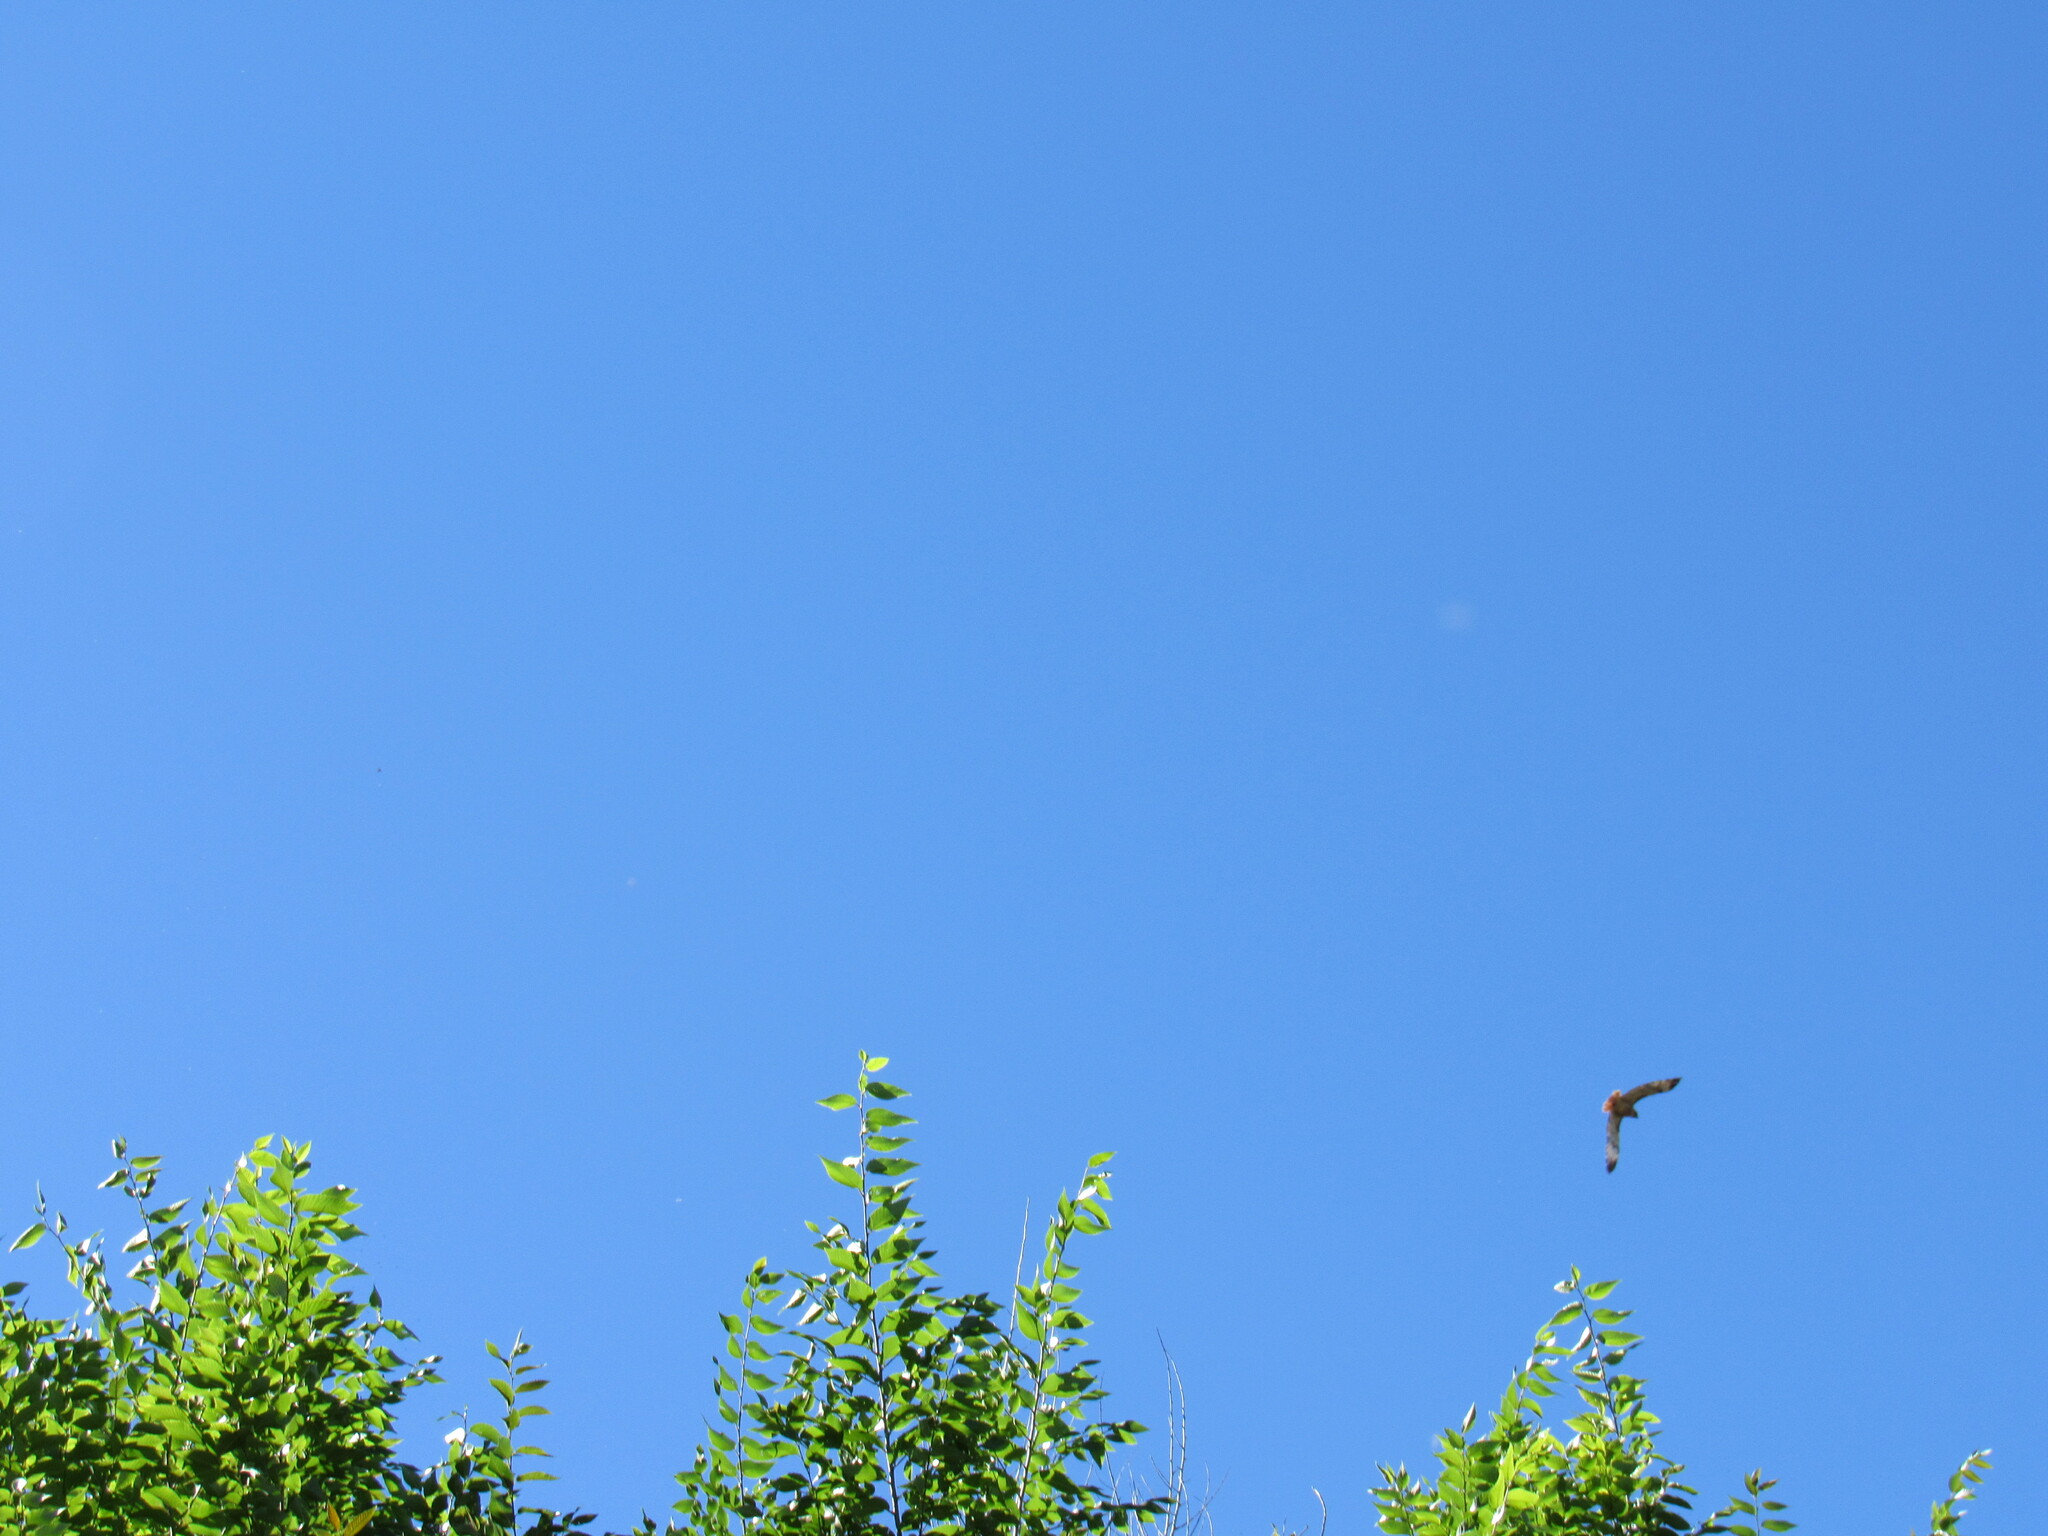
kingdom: Animalia
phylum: Chordata
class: Aves
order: Accipitriformes
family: Accipitridae
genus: Buteo
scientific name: Buteo jamaicensis
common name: Red-tailed hawk
